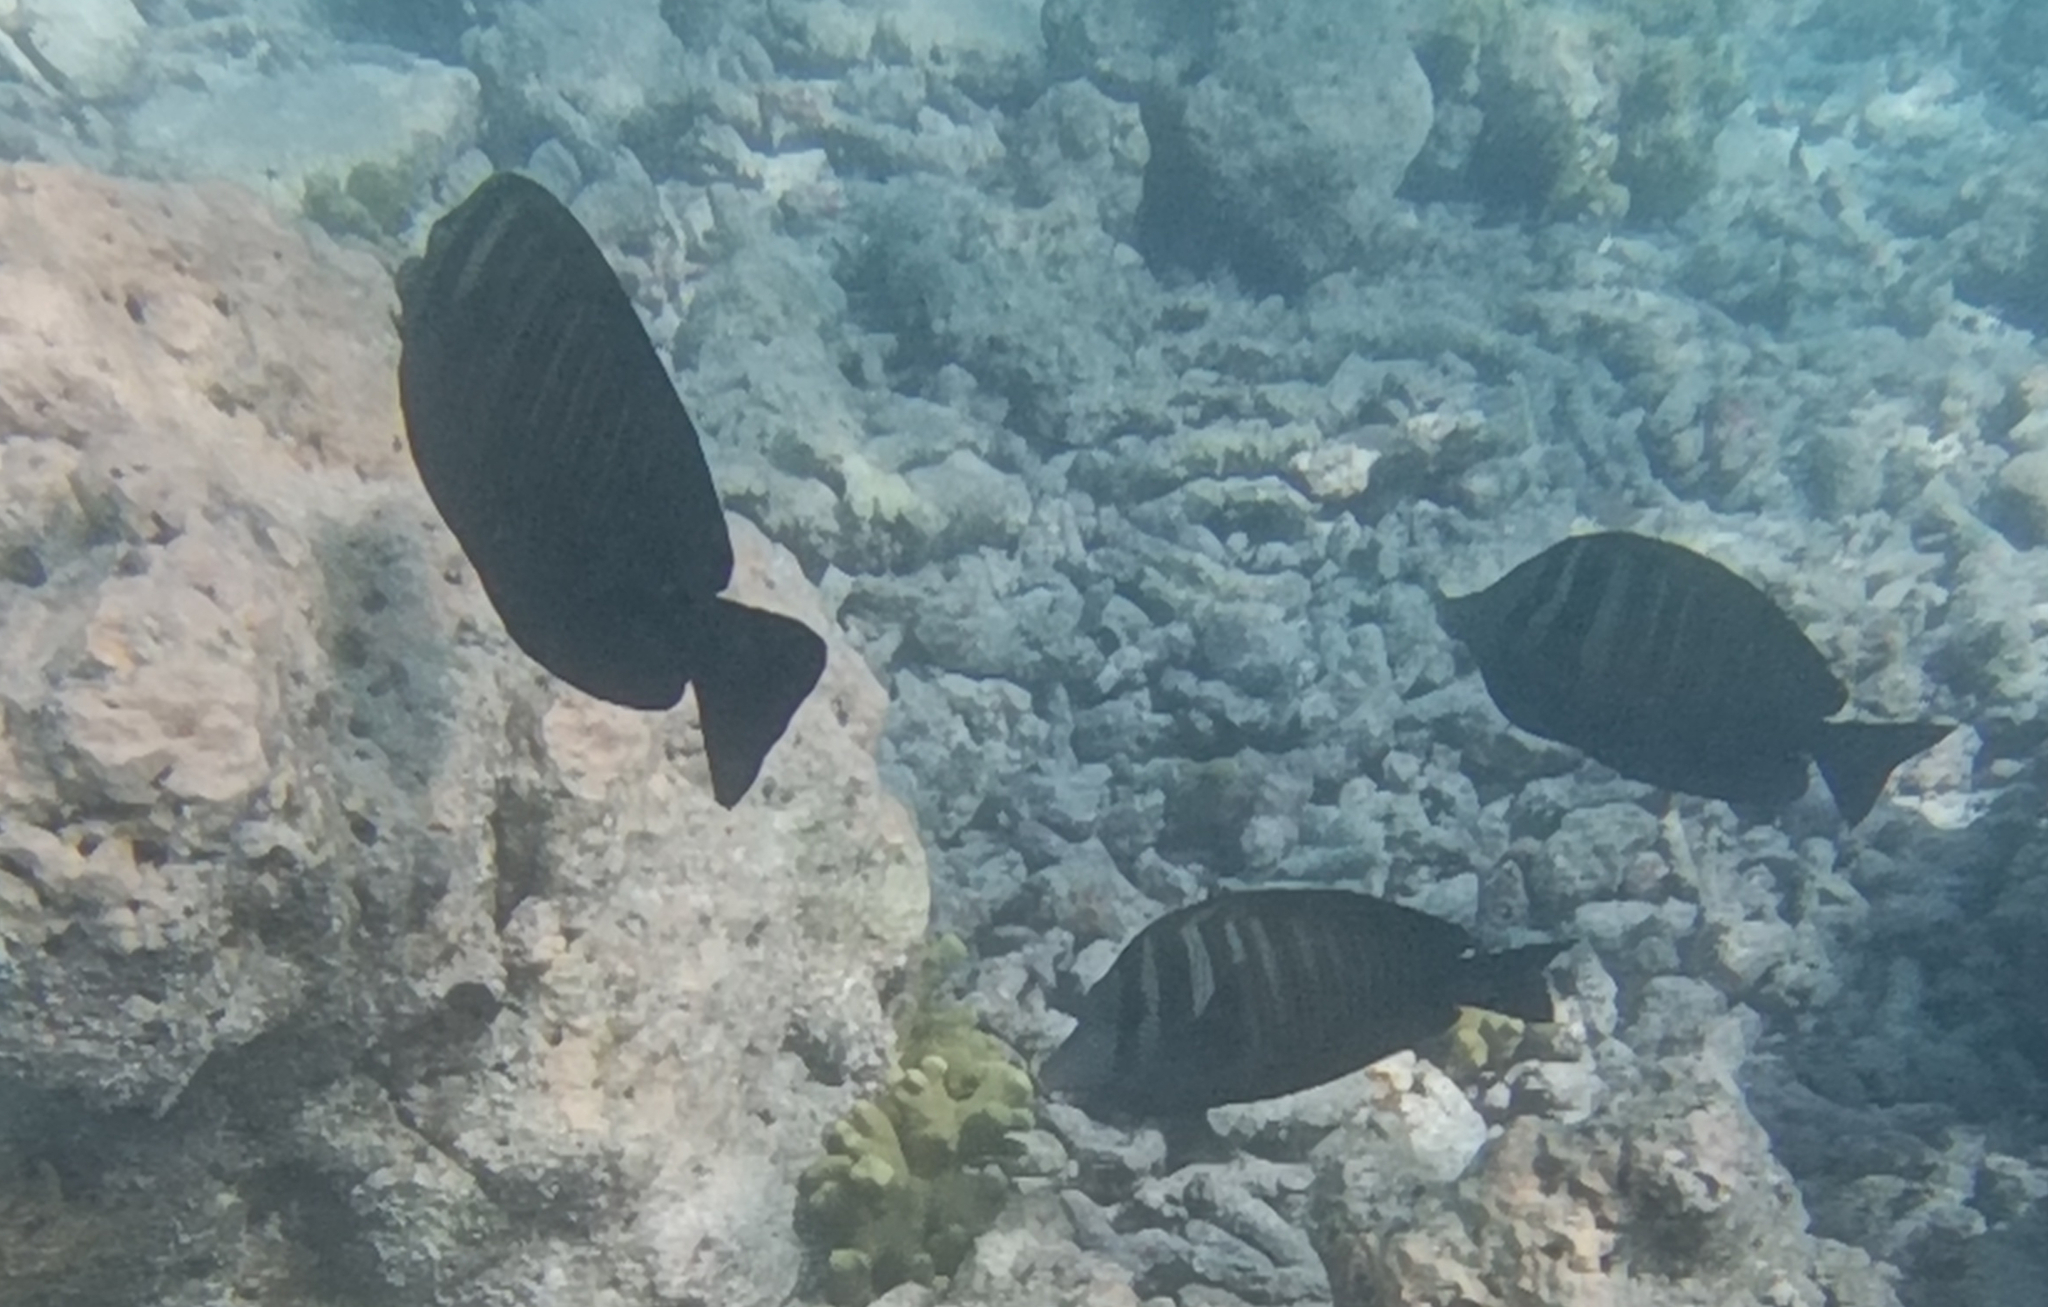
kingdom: Animalia
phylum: Chordata
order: Perciformes
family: Acanthuridae
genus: Zebrasoma
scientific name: Zebrasoma desjardinii
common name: Desjardin's sailfin tang
